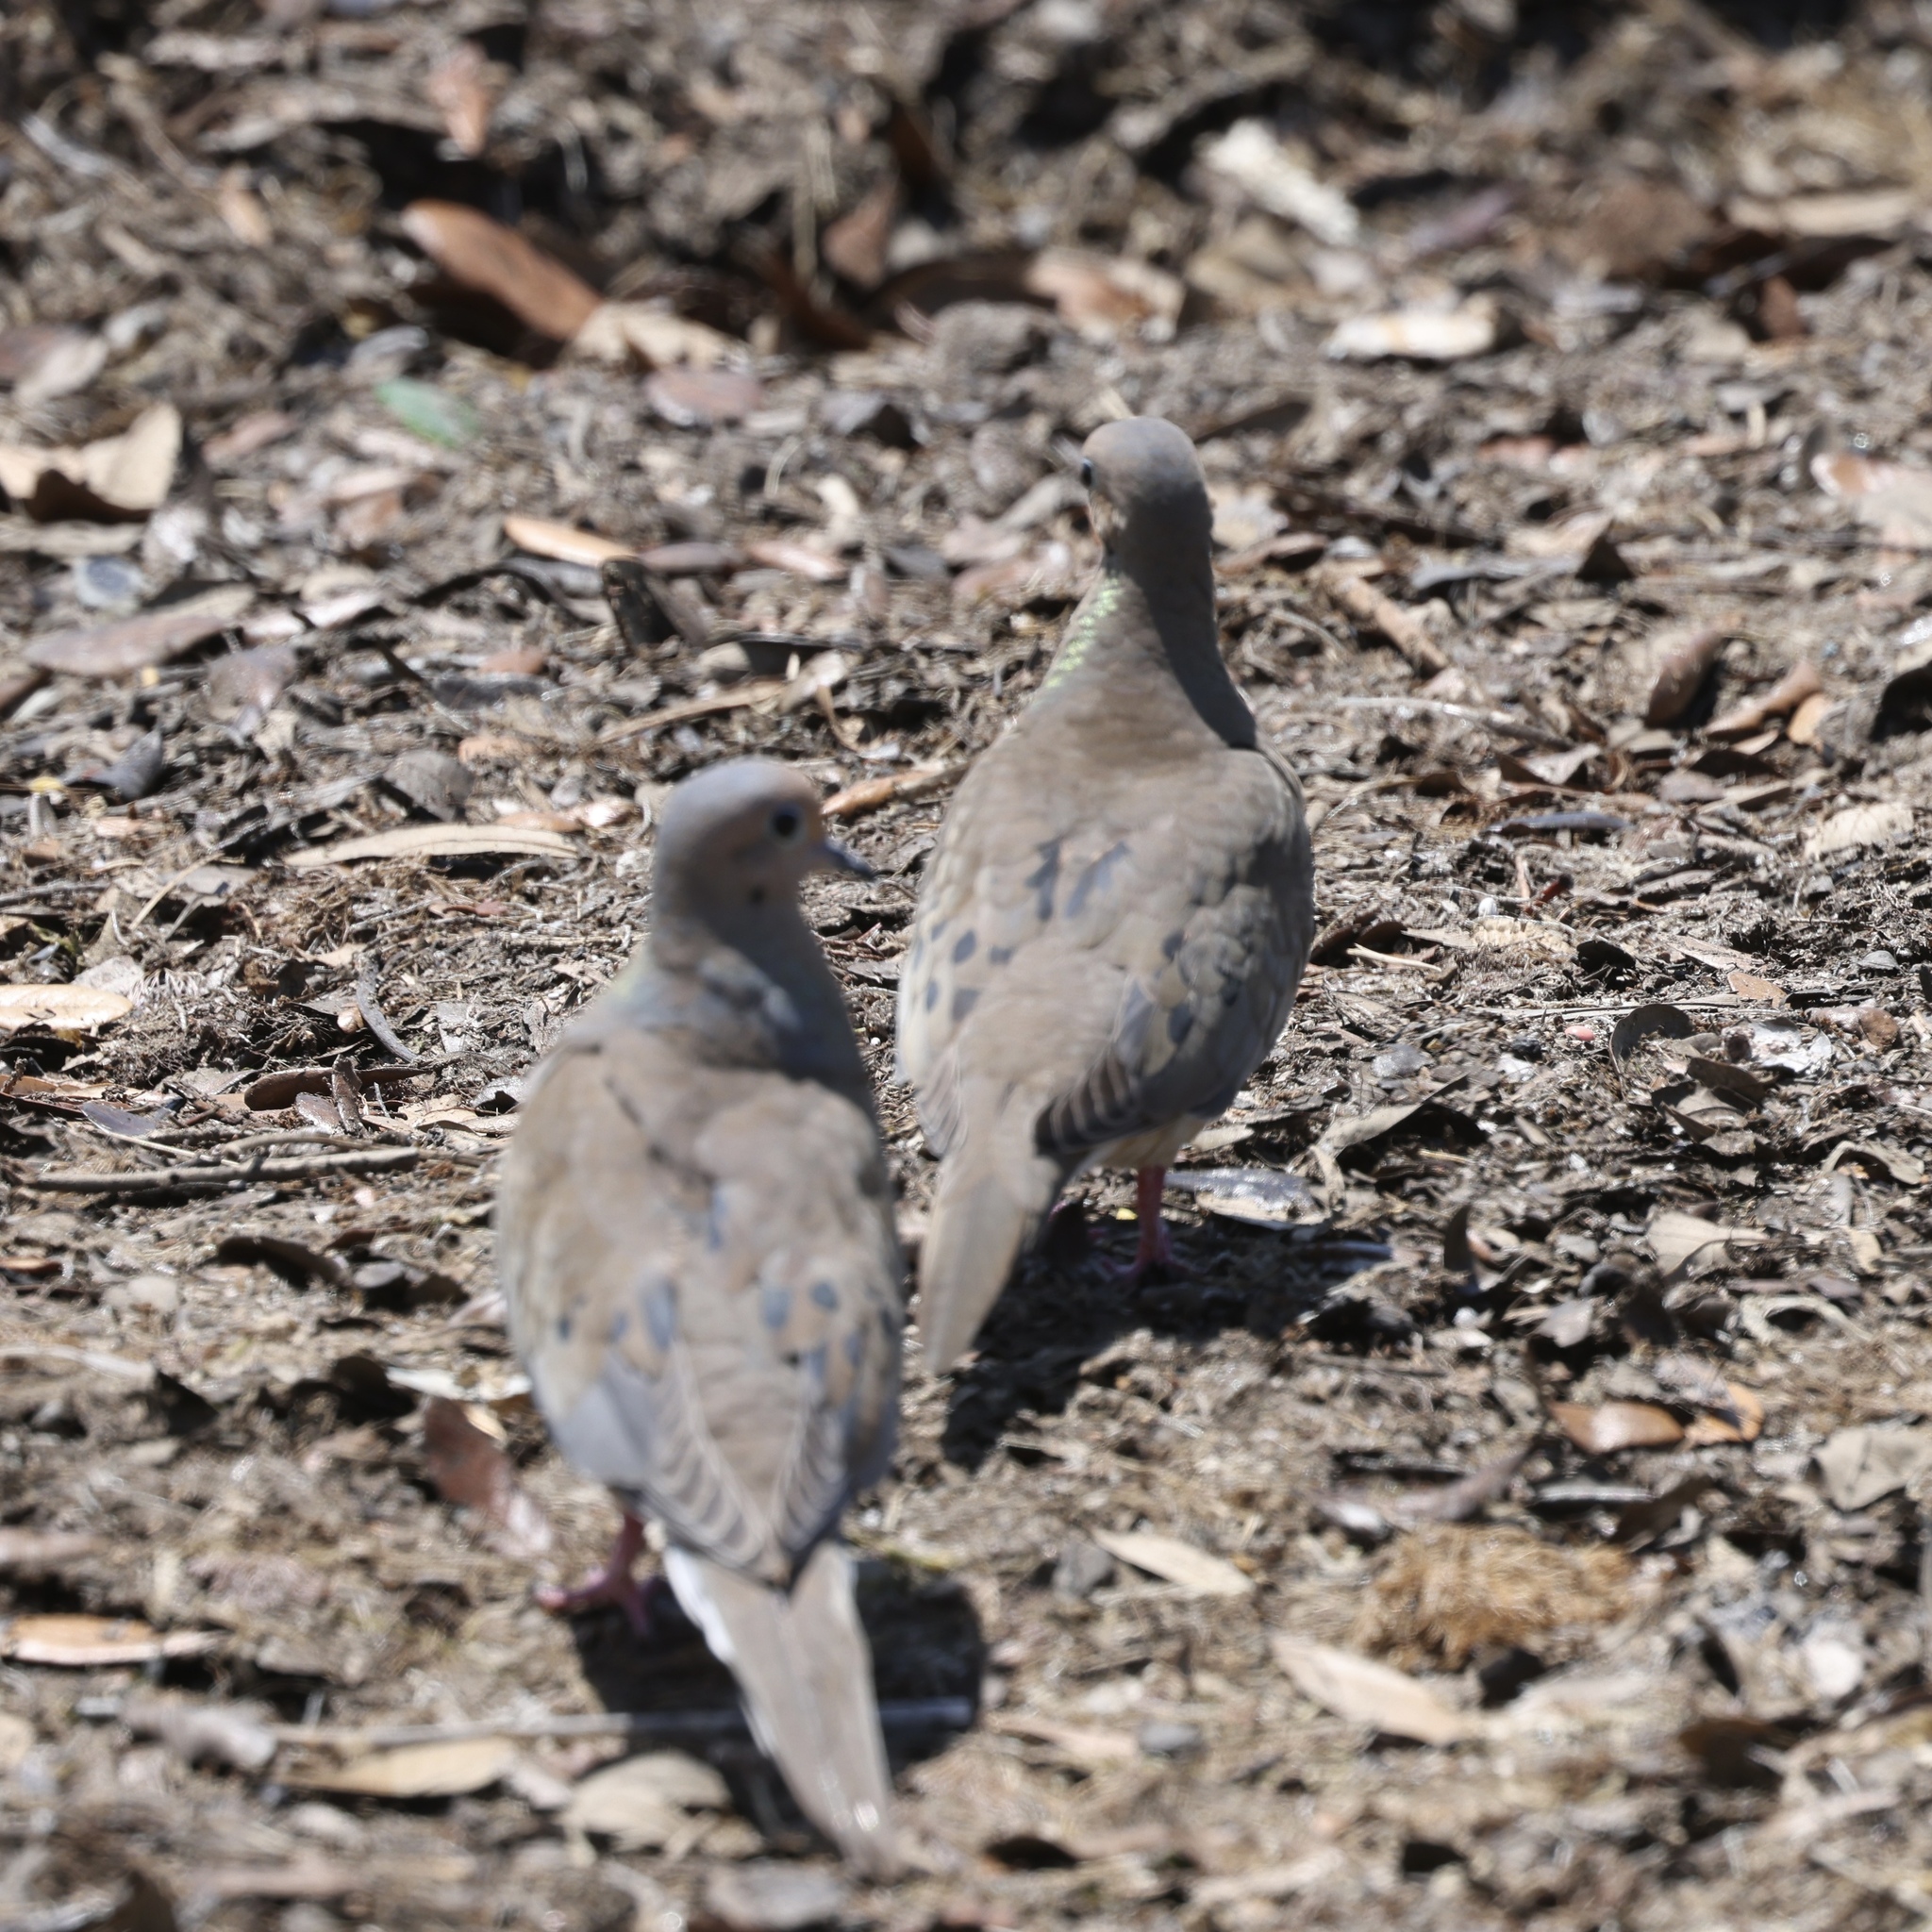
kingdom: Animalia
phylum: Chordata
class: Aves
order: Columbiformes
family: Columbidae
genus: Zenaida
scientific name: Zenaida macroura
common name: Mourning dove
